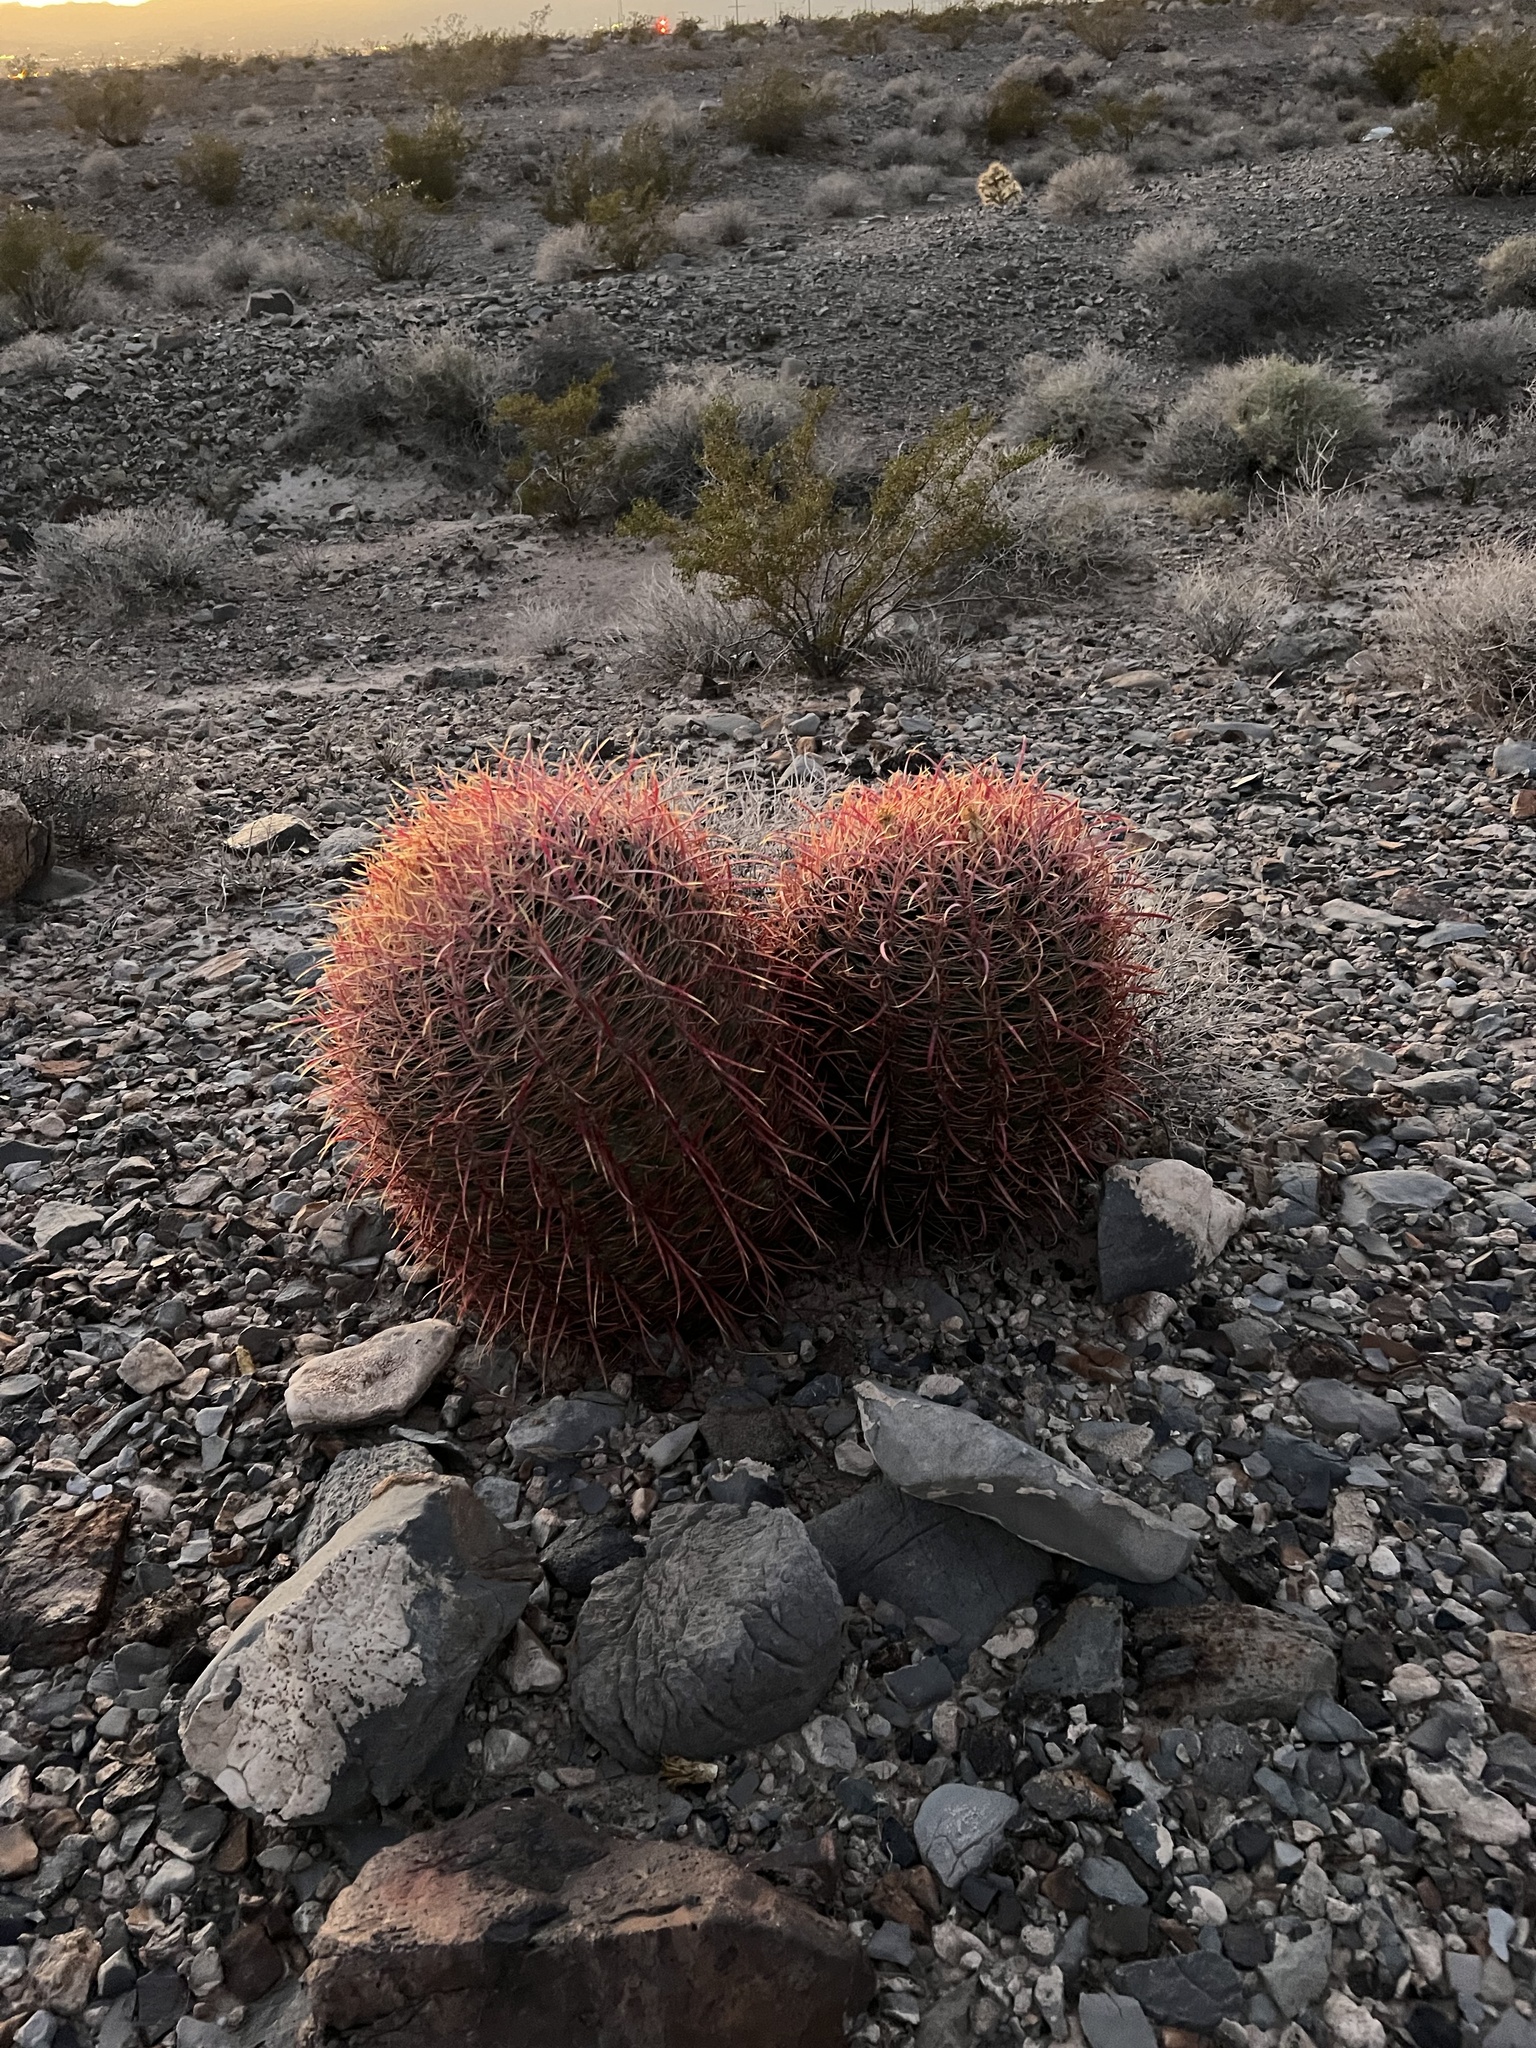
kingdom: Plantae
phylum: Tracheophyta
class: Magnoliopsida
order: Caryophyllales
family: Cactaceae
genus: Ferocactus
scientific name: Ferocactus cylindraceus
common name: California barrel cactus
